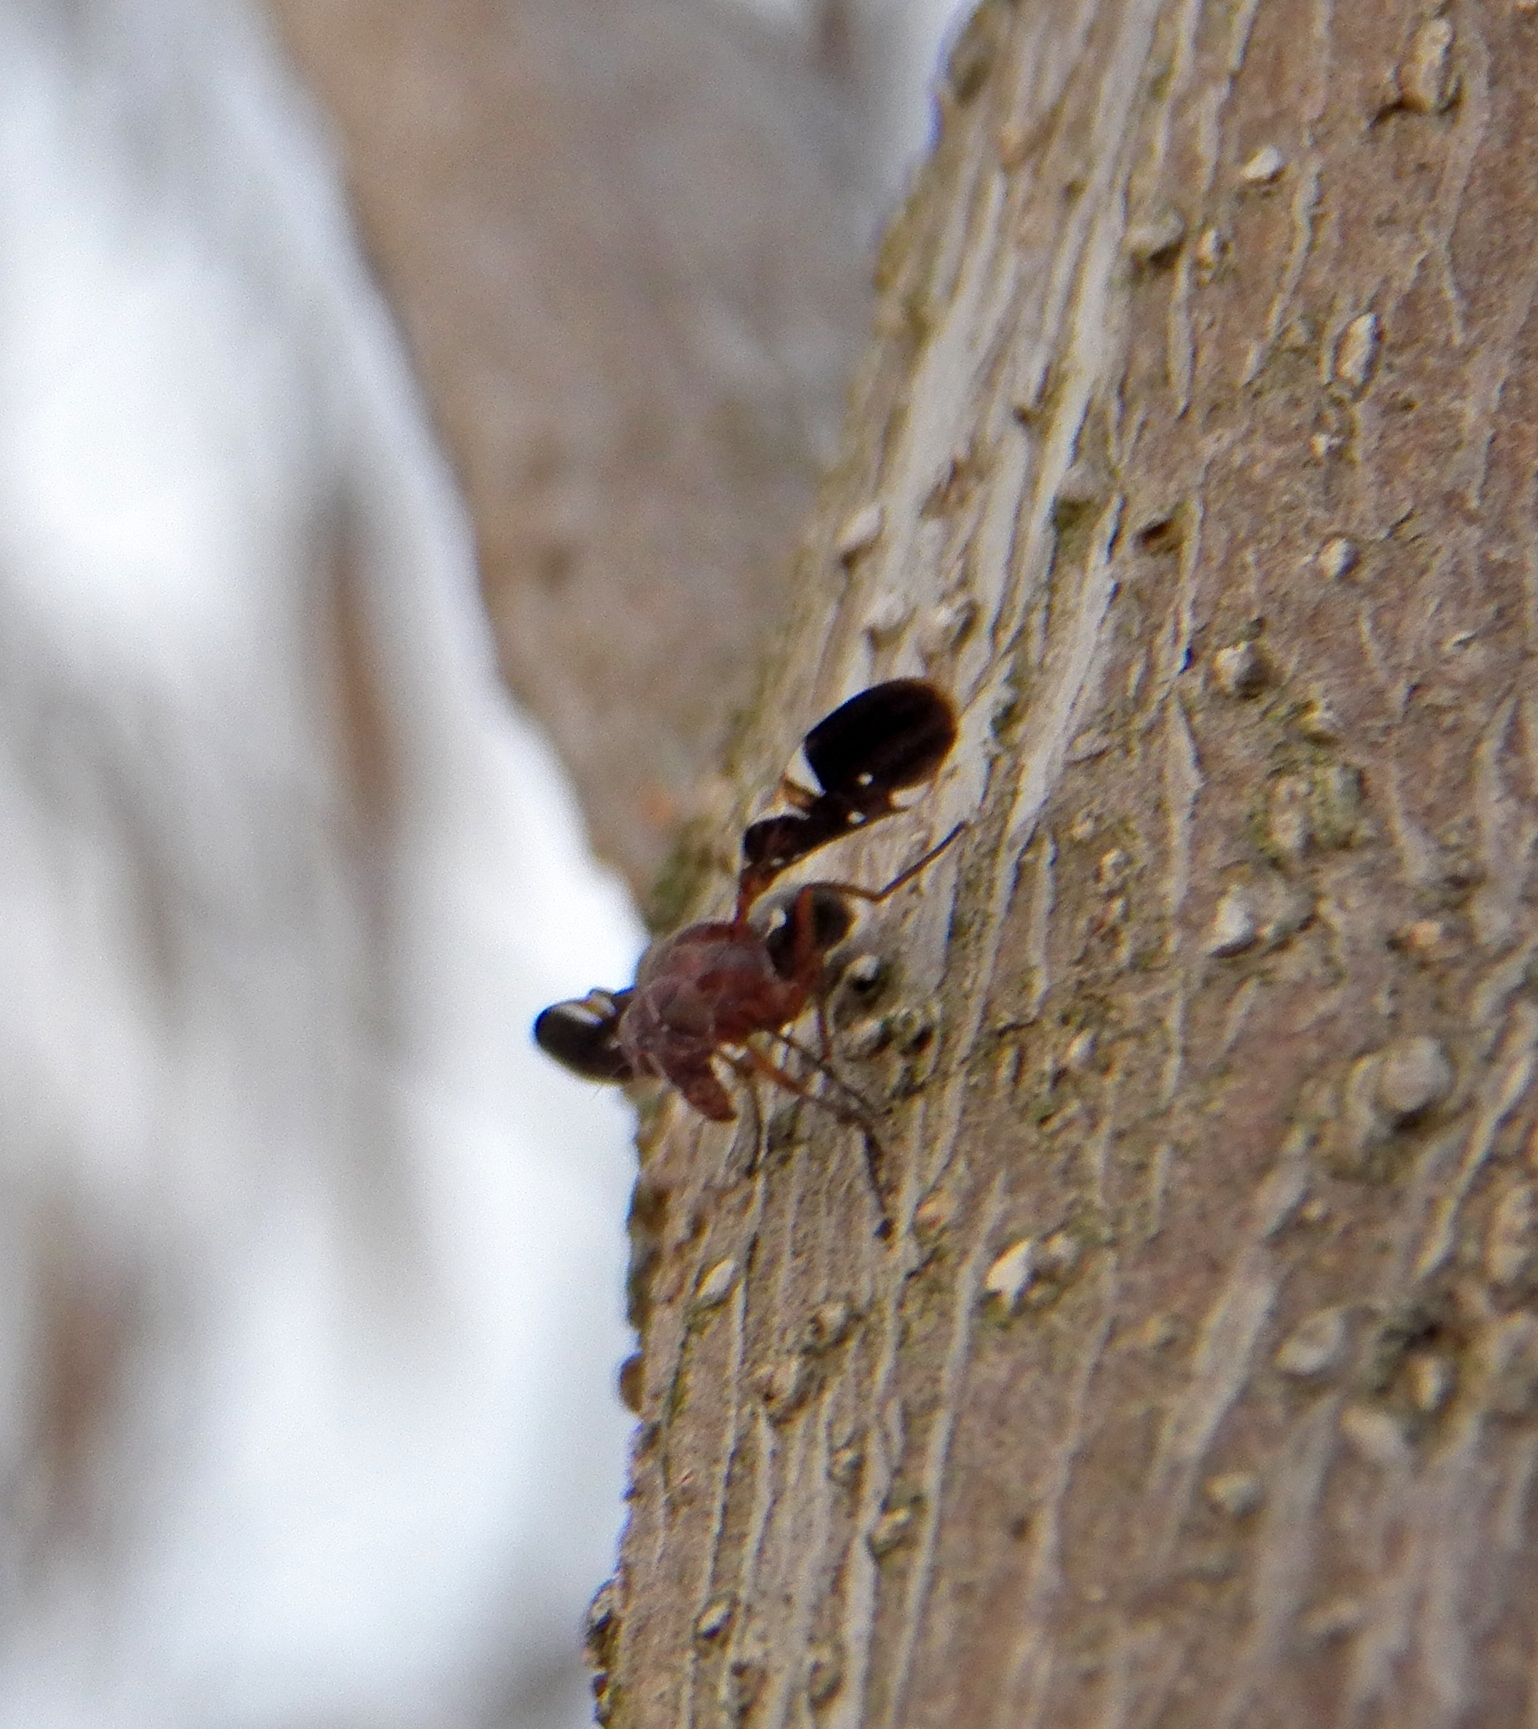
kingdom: Animalia
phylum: Arthropoda
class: Insecta
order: Diptera
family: Ulidiidae
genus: Delphinia
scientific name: Delphinia picta
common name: Common picture-winged fly
